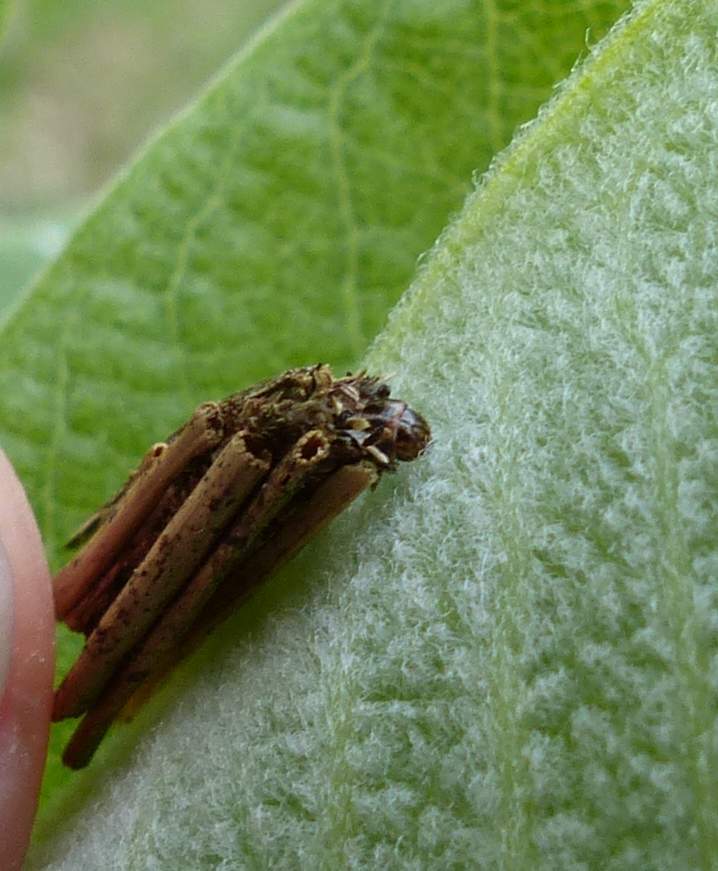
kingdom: Animalia
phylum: Arthropoda
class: Insecta
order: Lepidoptera
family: Psychidae
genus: Psyche
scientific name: Psyche casta
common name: Common sweep
